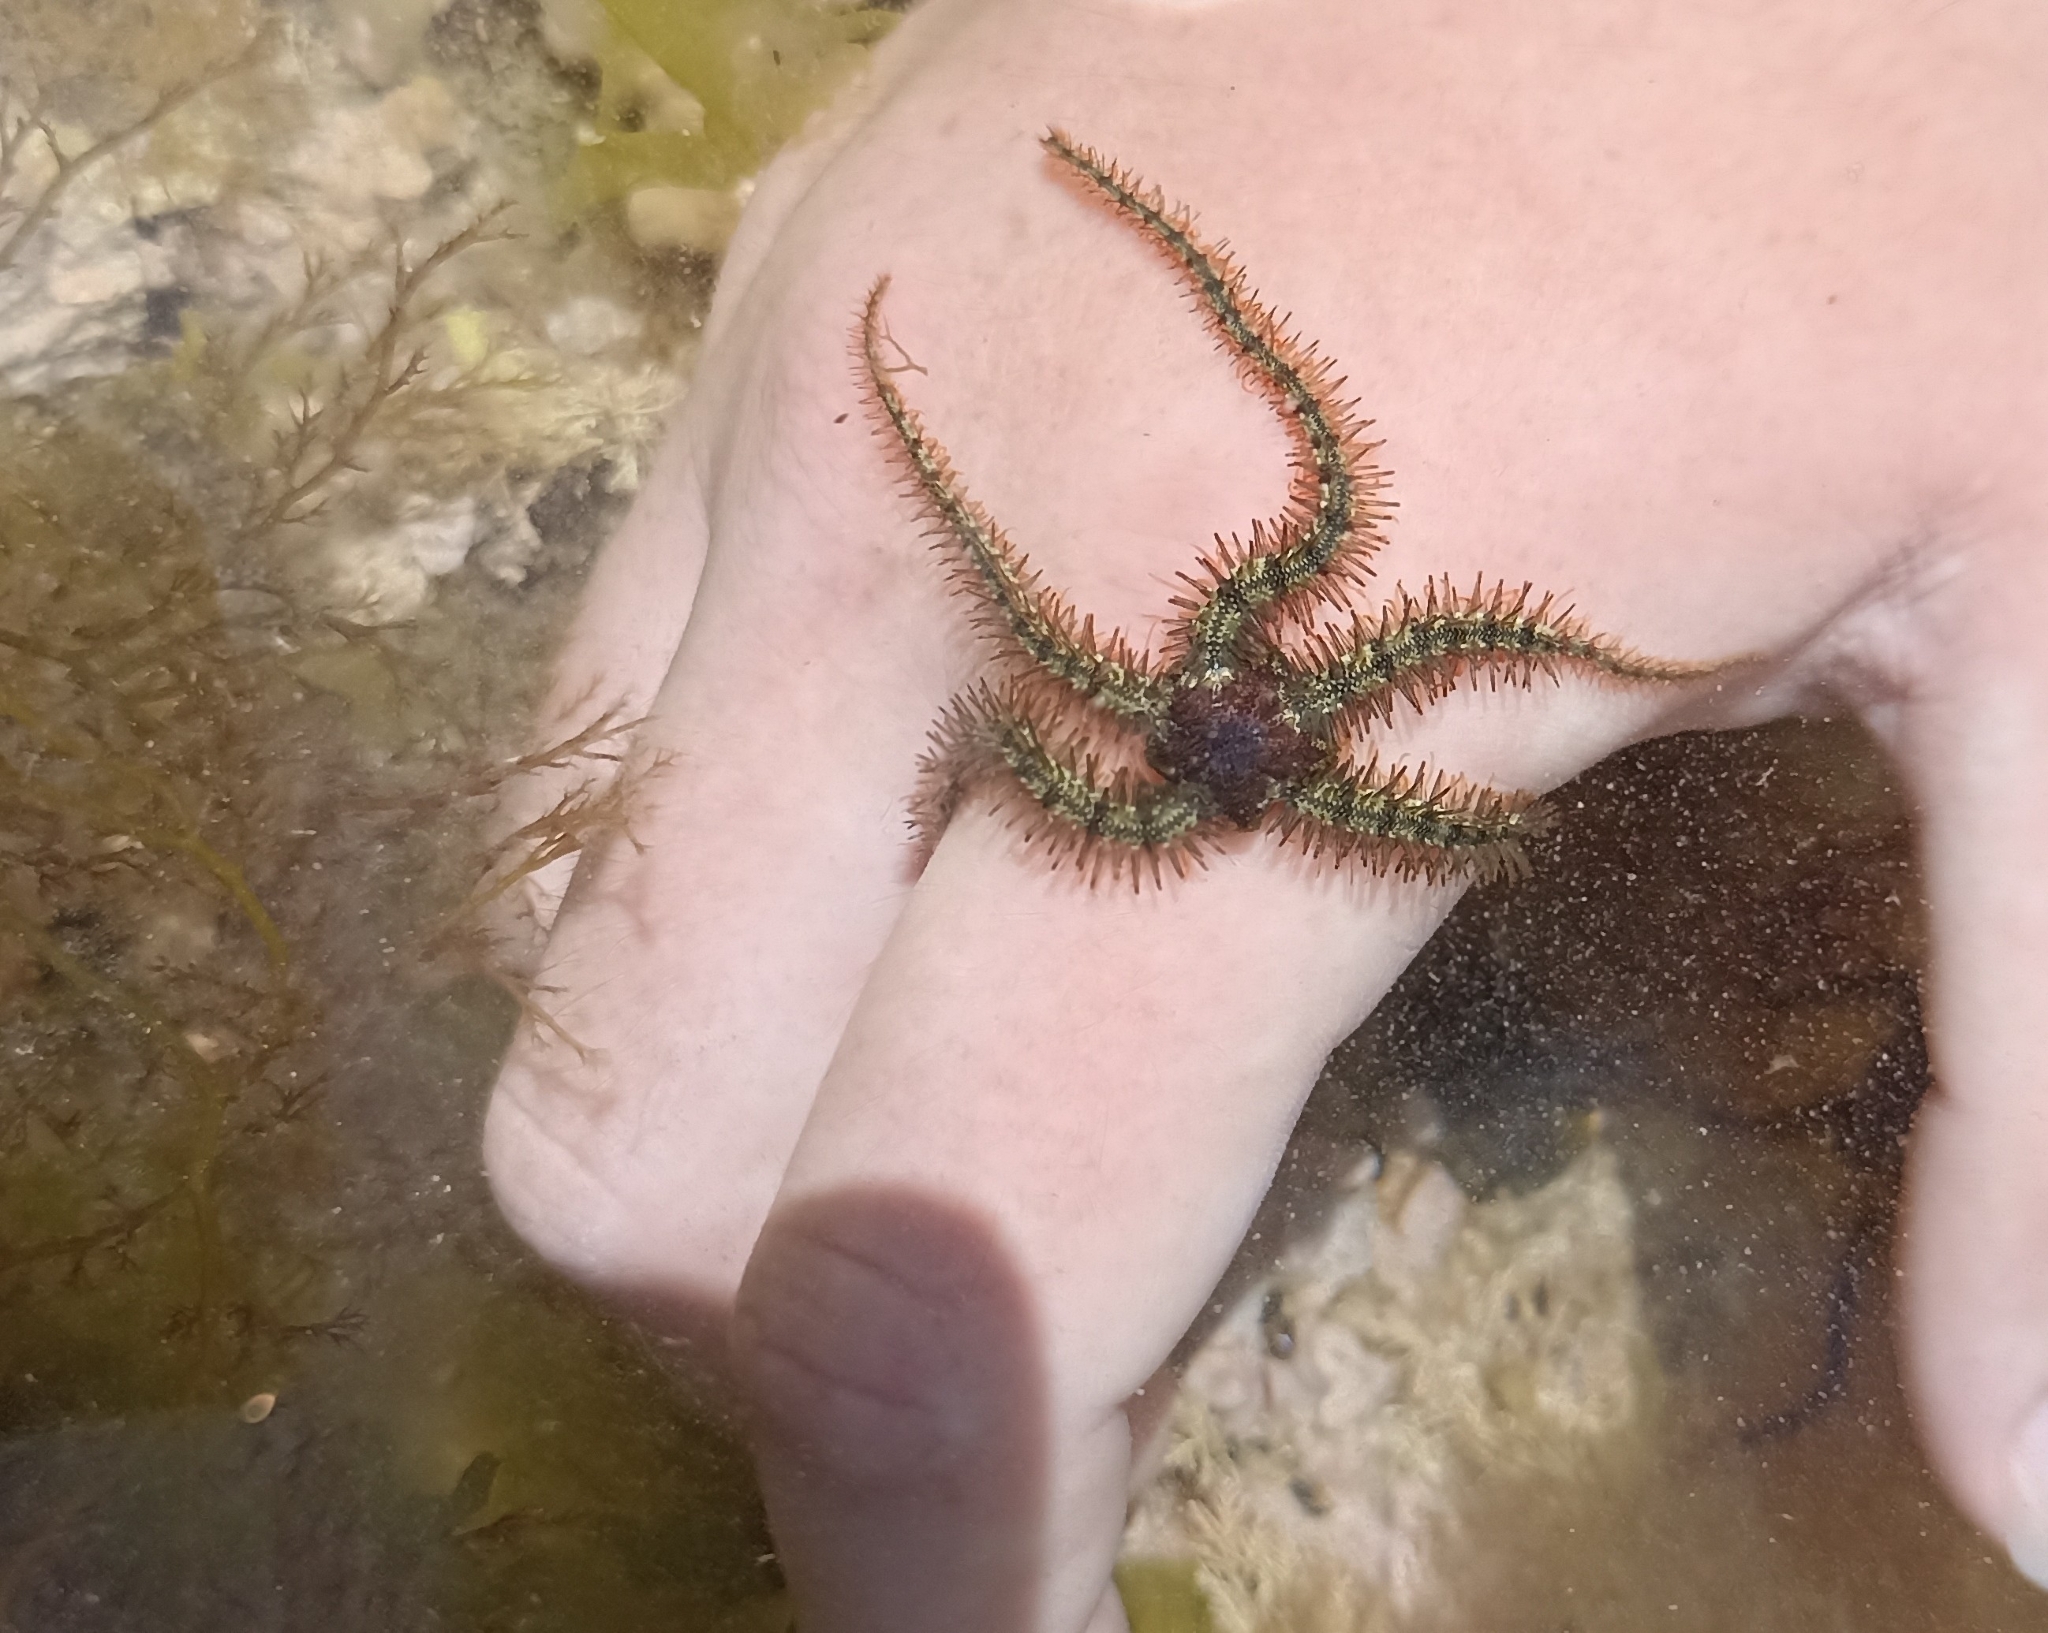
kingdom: Animalia
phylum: Echinodermata
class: Ophiuroidea
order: Amphilepidida
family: Ophiotrichidae
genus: Ophiothrix
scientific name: Ophiothrix fragilis
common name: Common brittlestar
